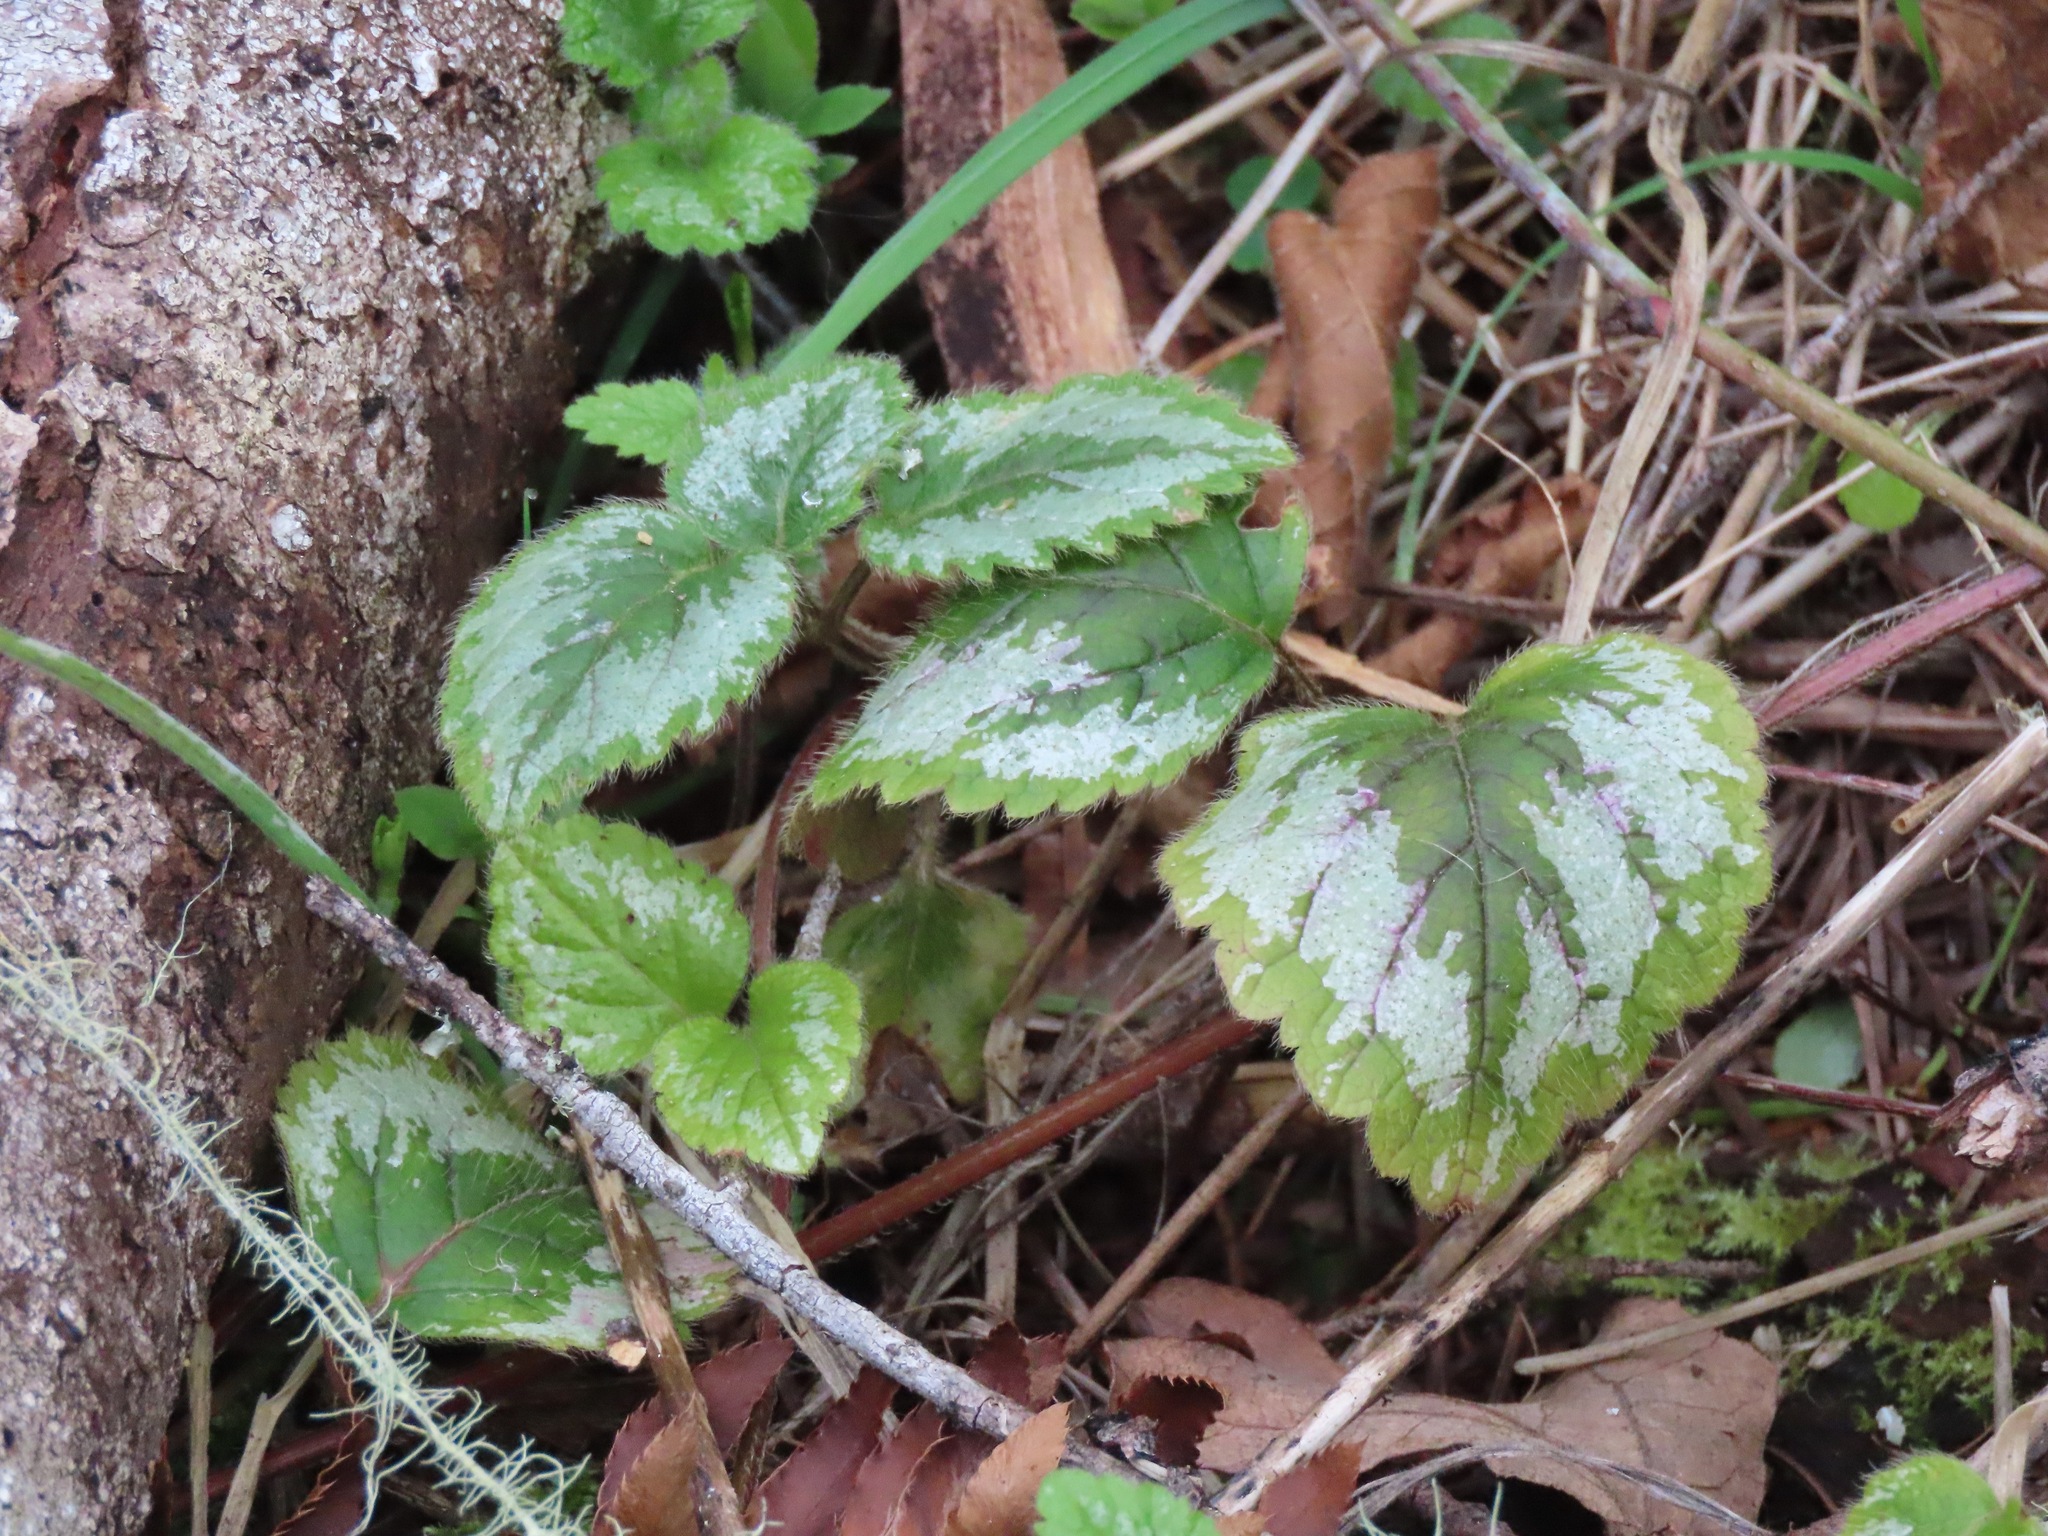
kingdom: Plantae
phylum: Tracheophyta
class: Magnoliopsida
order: Lamiales
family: Lamiaceae
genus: Lamium
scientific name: Lamium galeobdolon
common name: Yellow archangel
